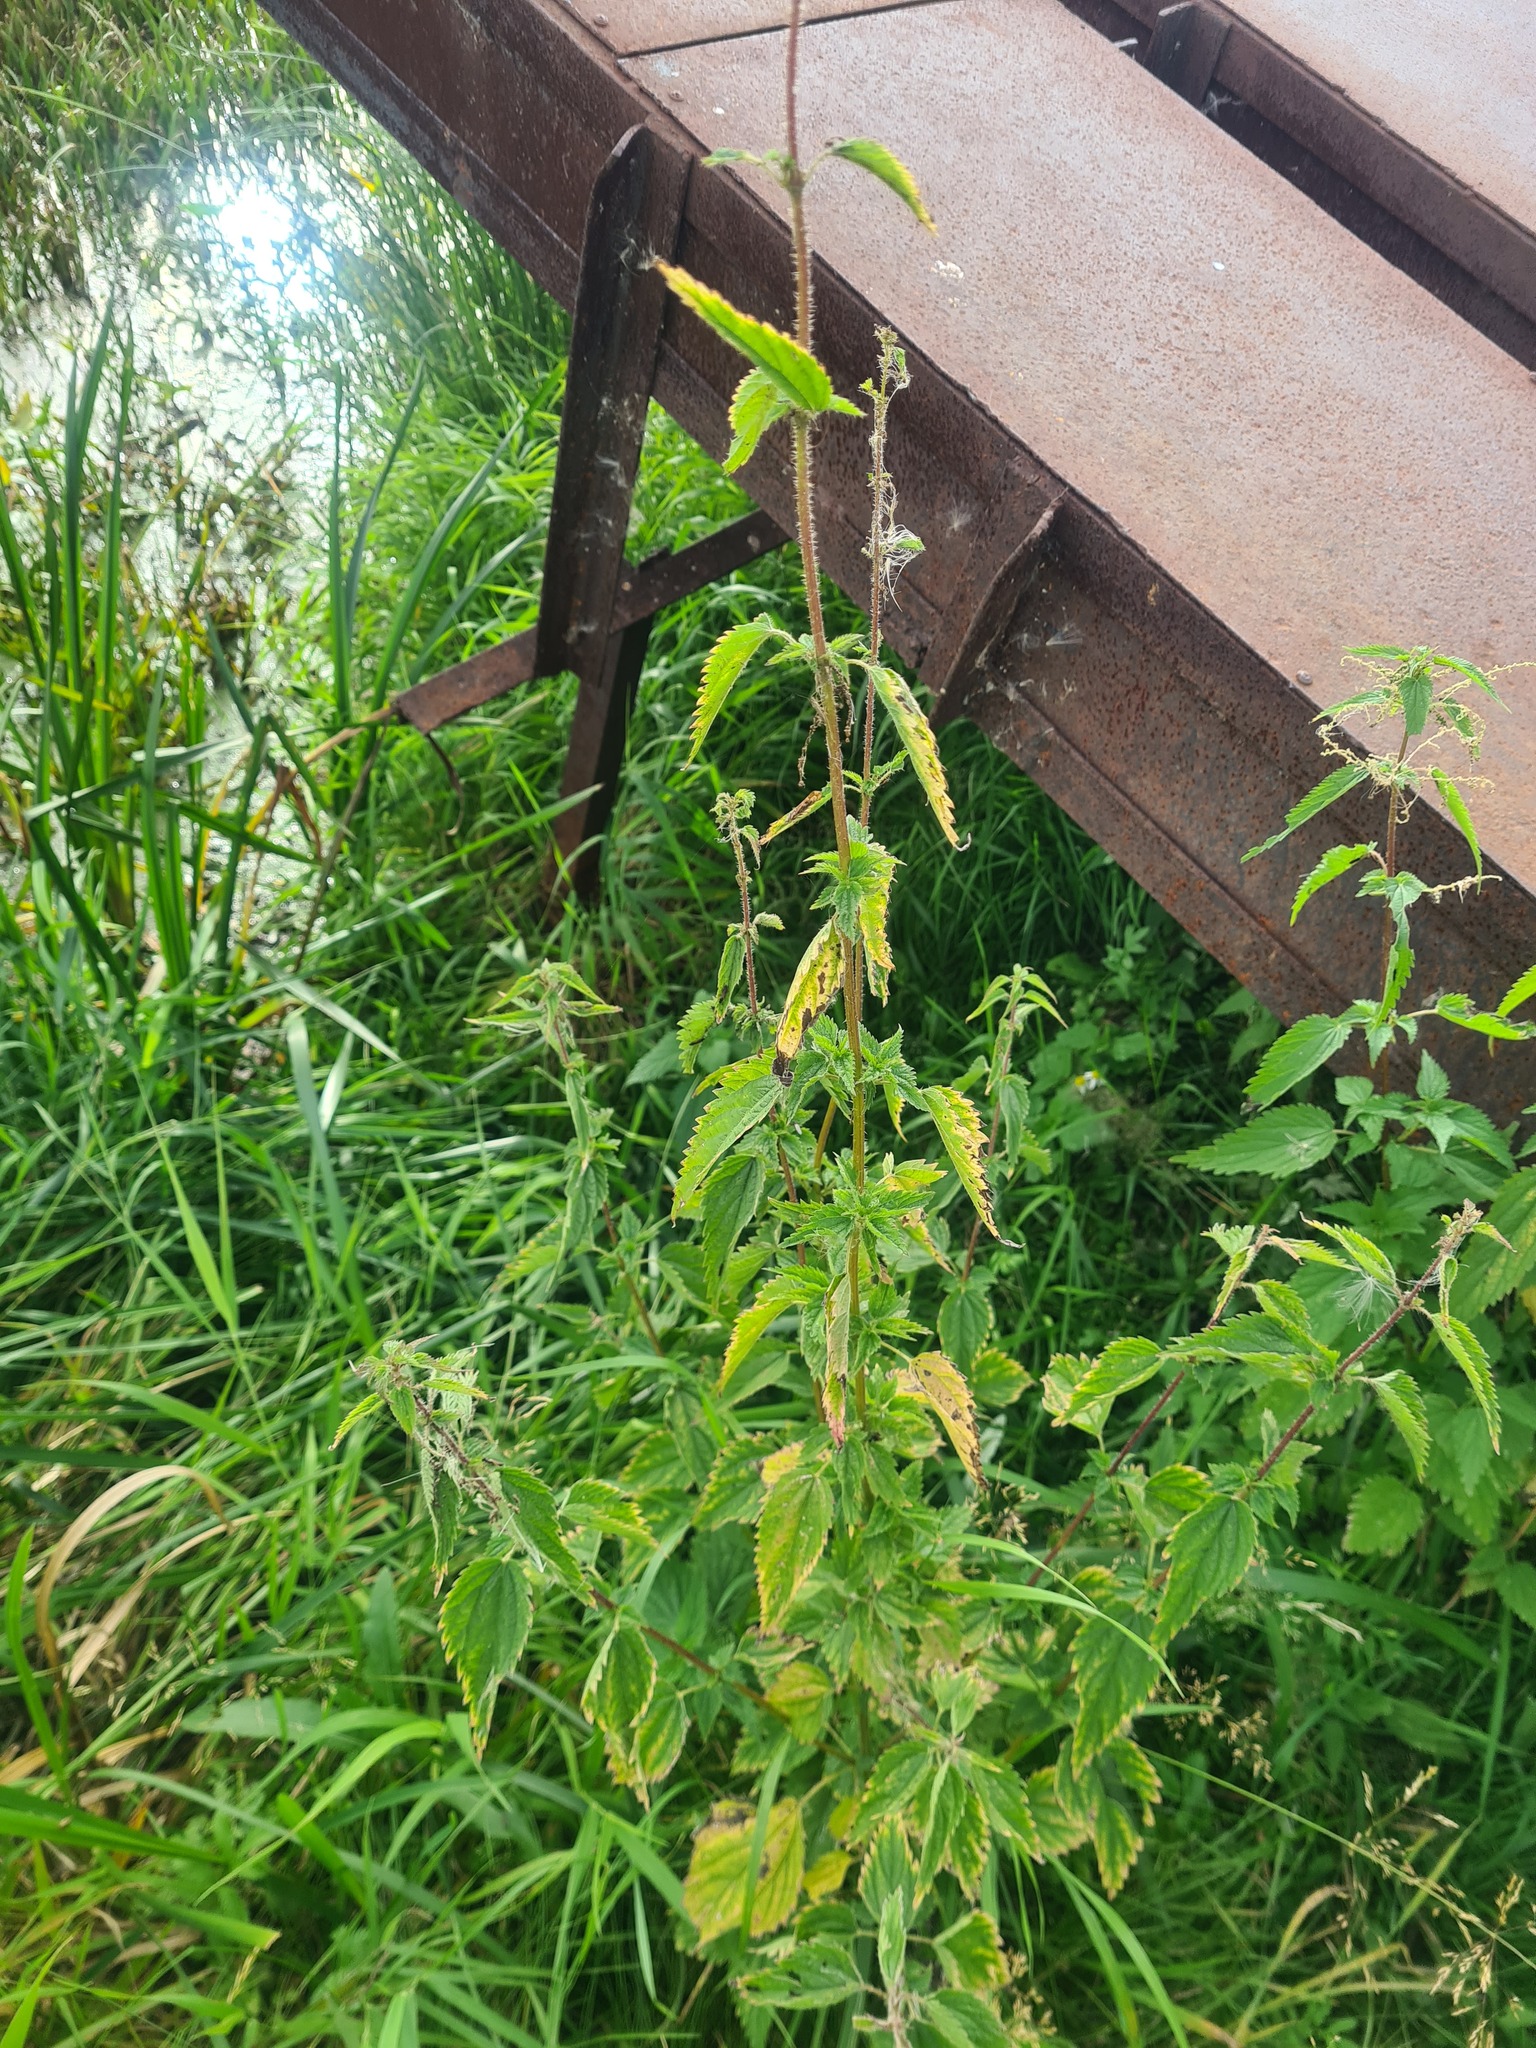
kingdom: Plantae
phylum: Tracheophyta
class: Magnoliopsida
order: Rosales
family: Urticaceae
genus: Urtica
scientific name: Urtica dioica
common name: Common nettle
